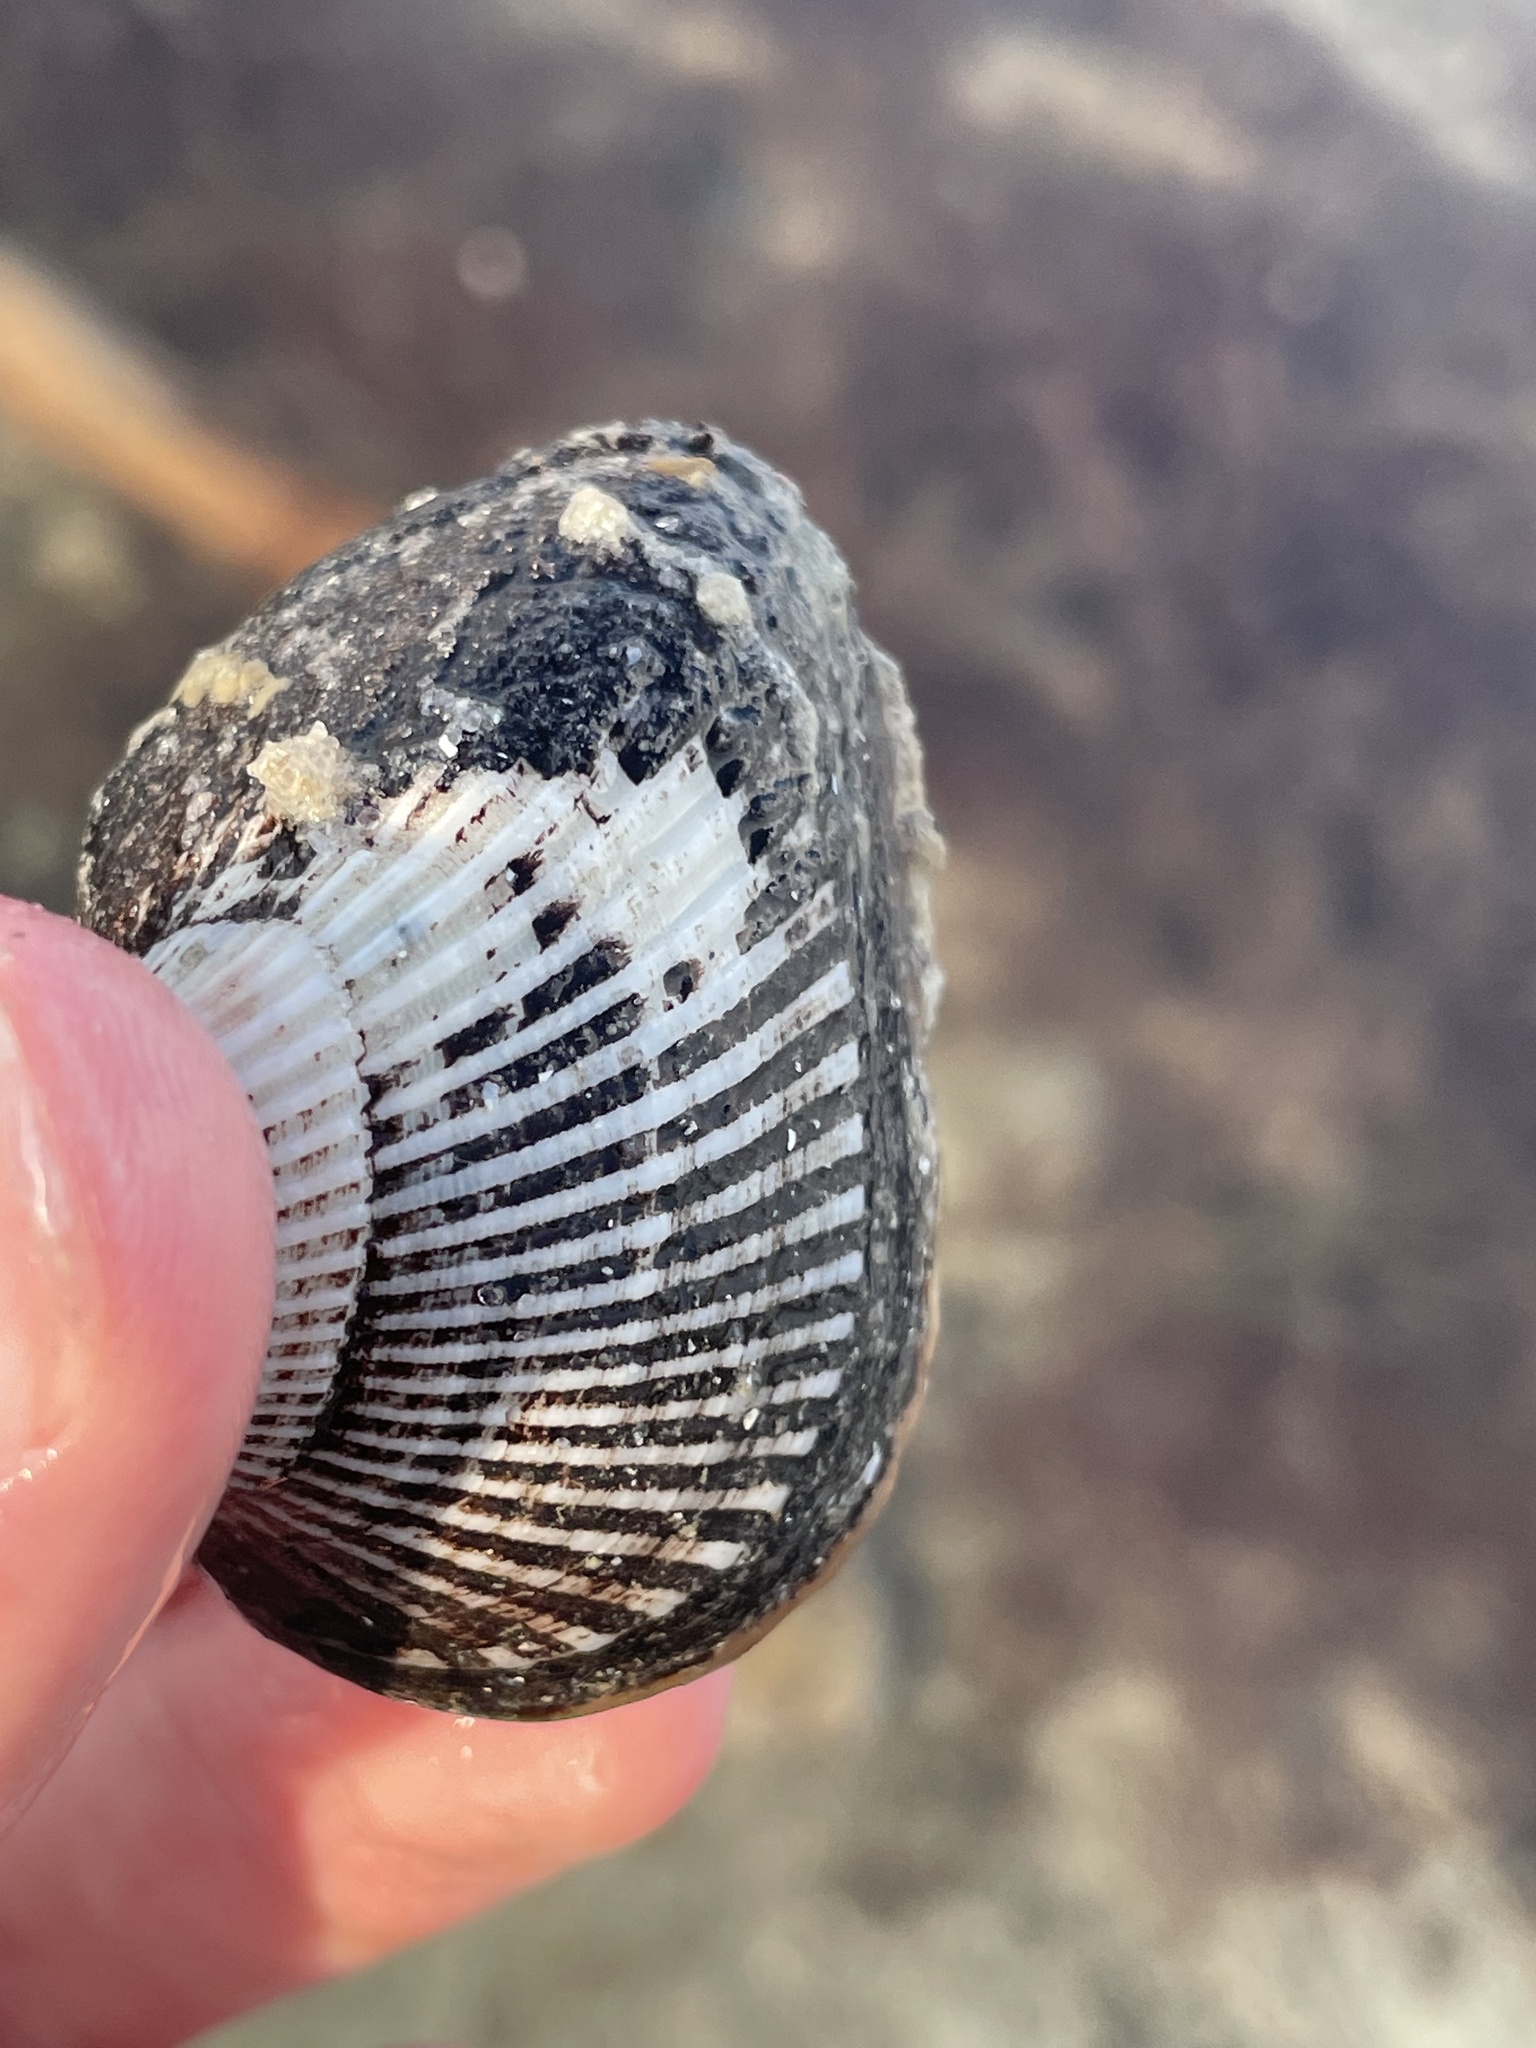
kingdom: Animalia
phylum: Mollusca
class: Bivalvia
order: Arcida
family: Noetiidae
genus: Noetia
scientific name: Noetia ponderosa
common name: Ponderous ark
